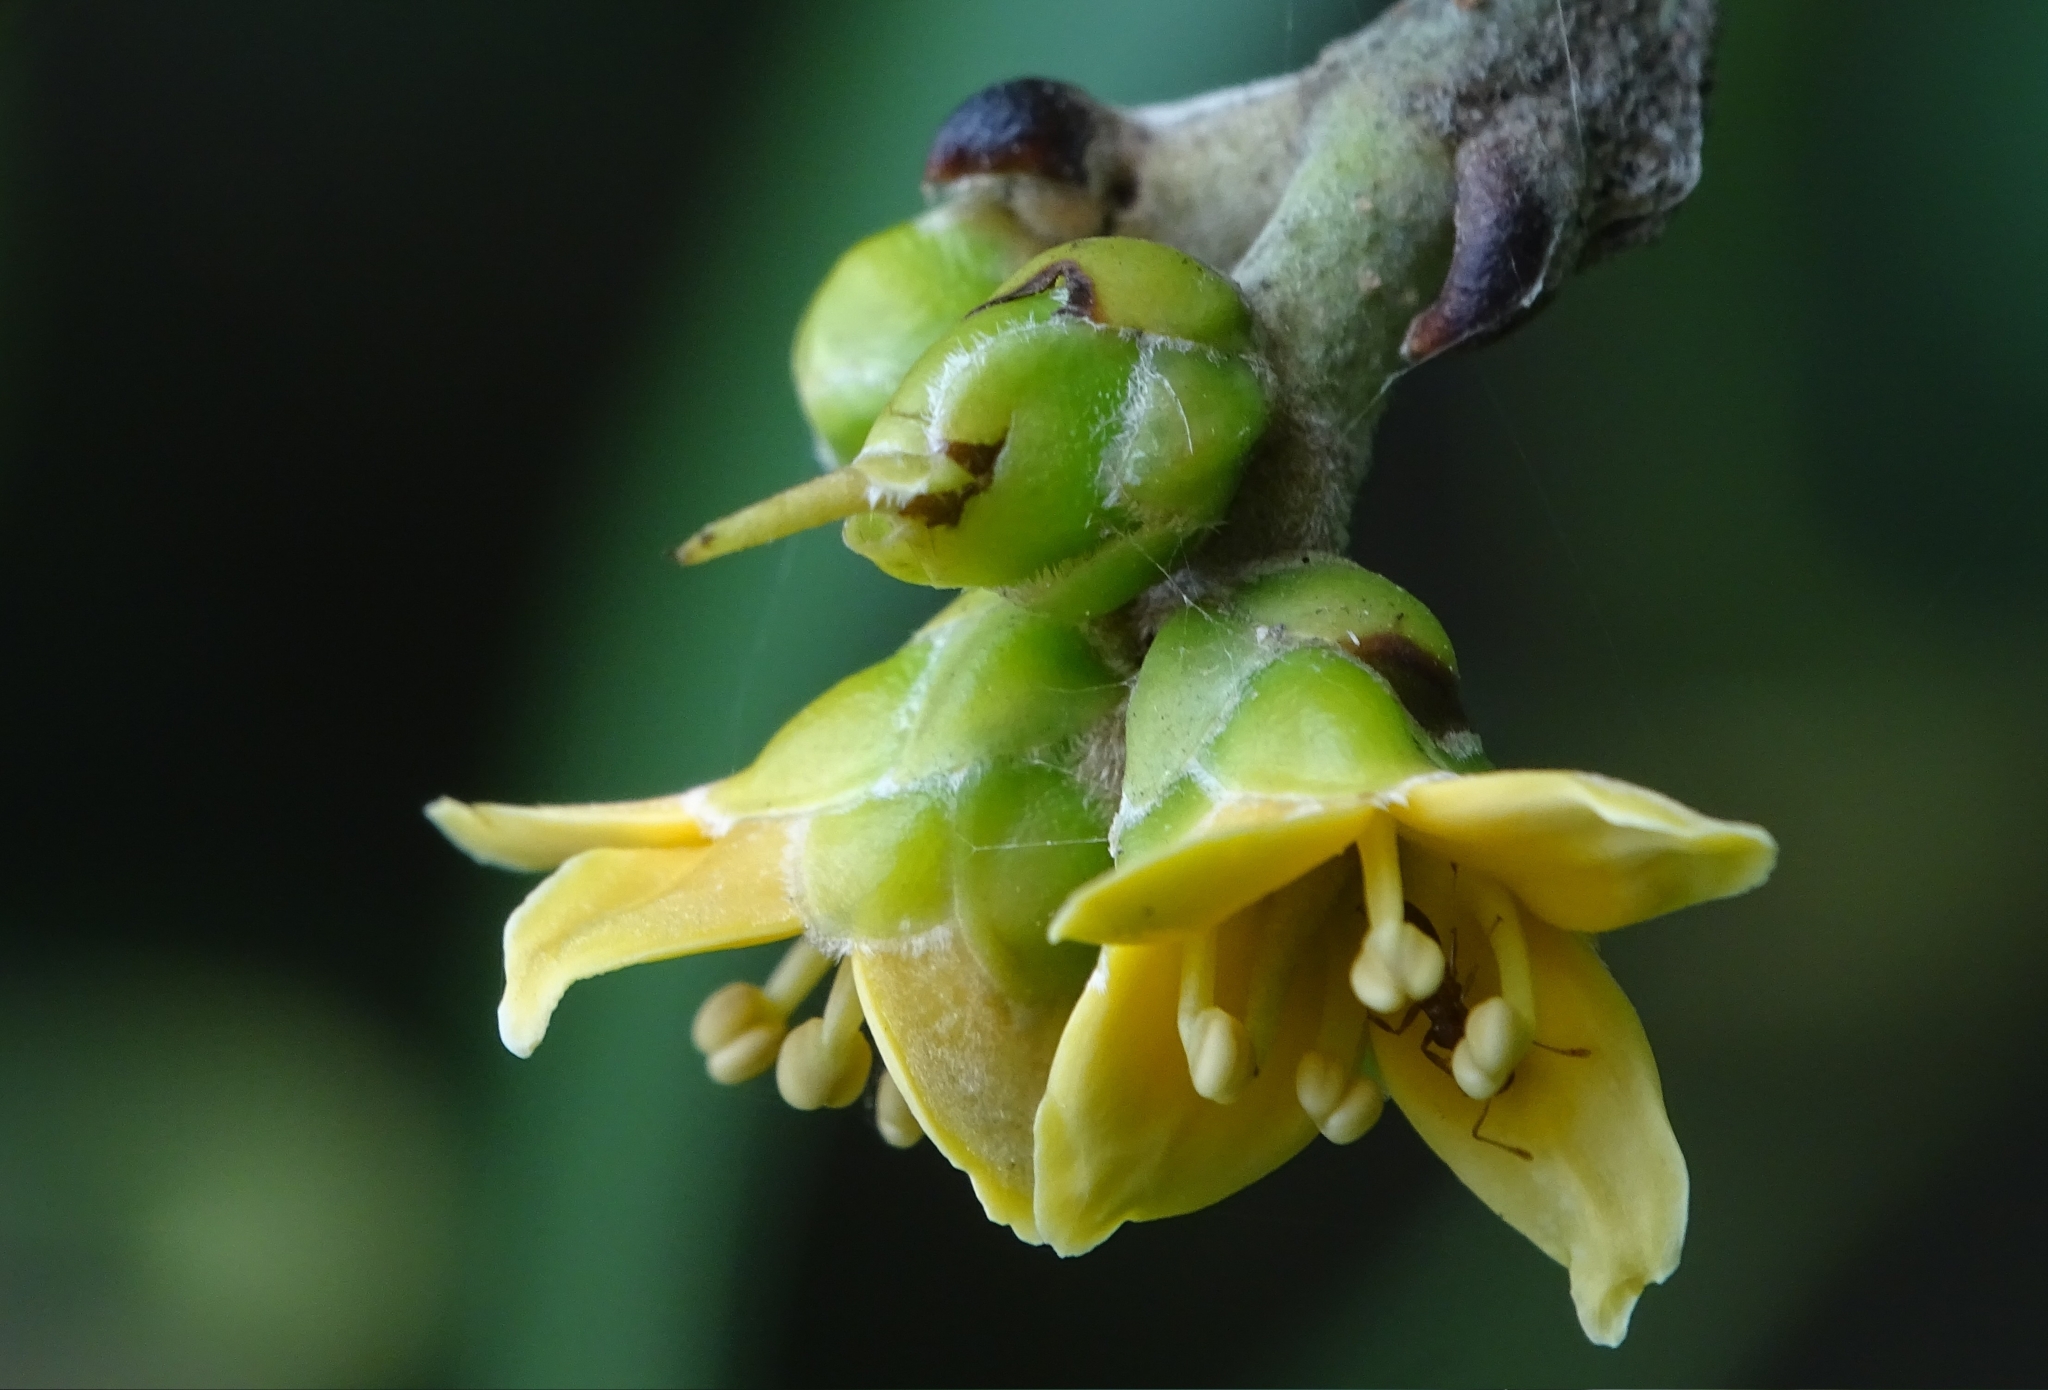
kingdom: Plantae
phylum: Tracheophyta
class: Magnoliopsida
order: Lamiales
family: Acanthaceae
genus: Avicennia
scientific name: Avicennia officinalis
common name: Baen
